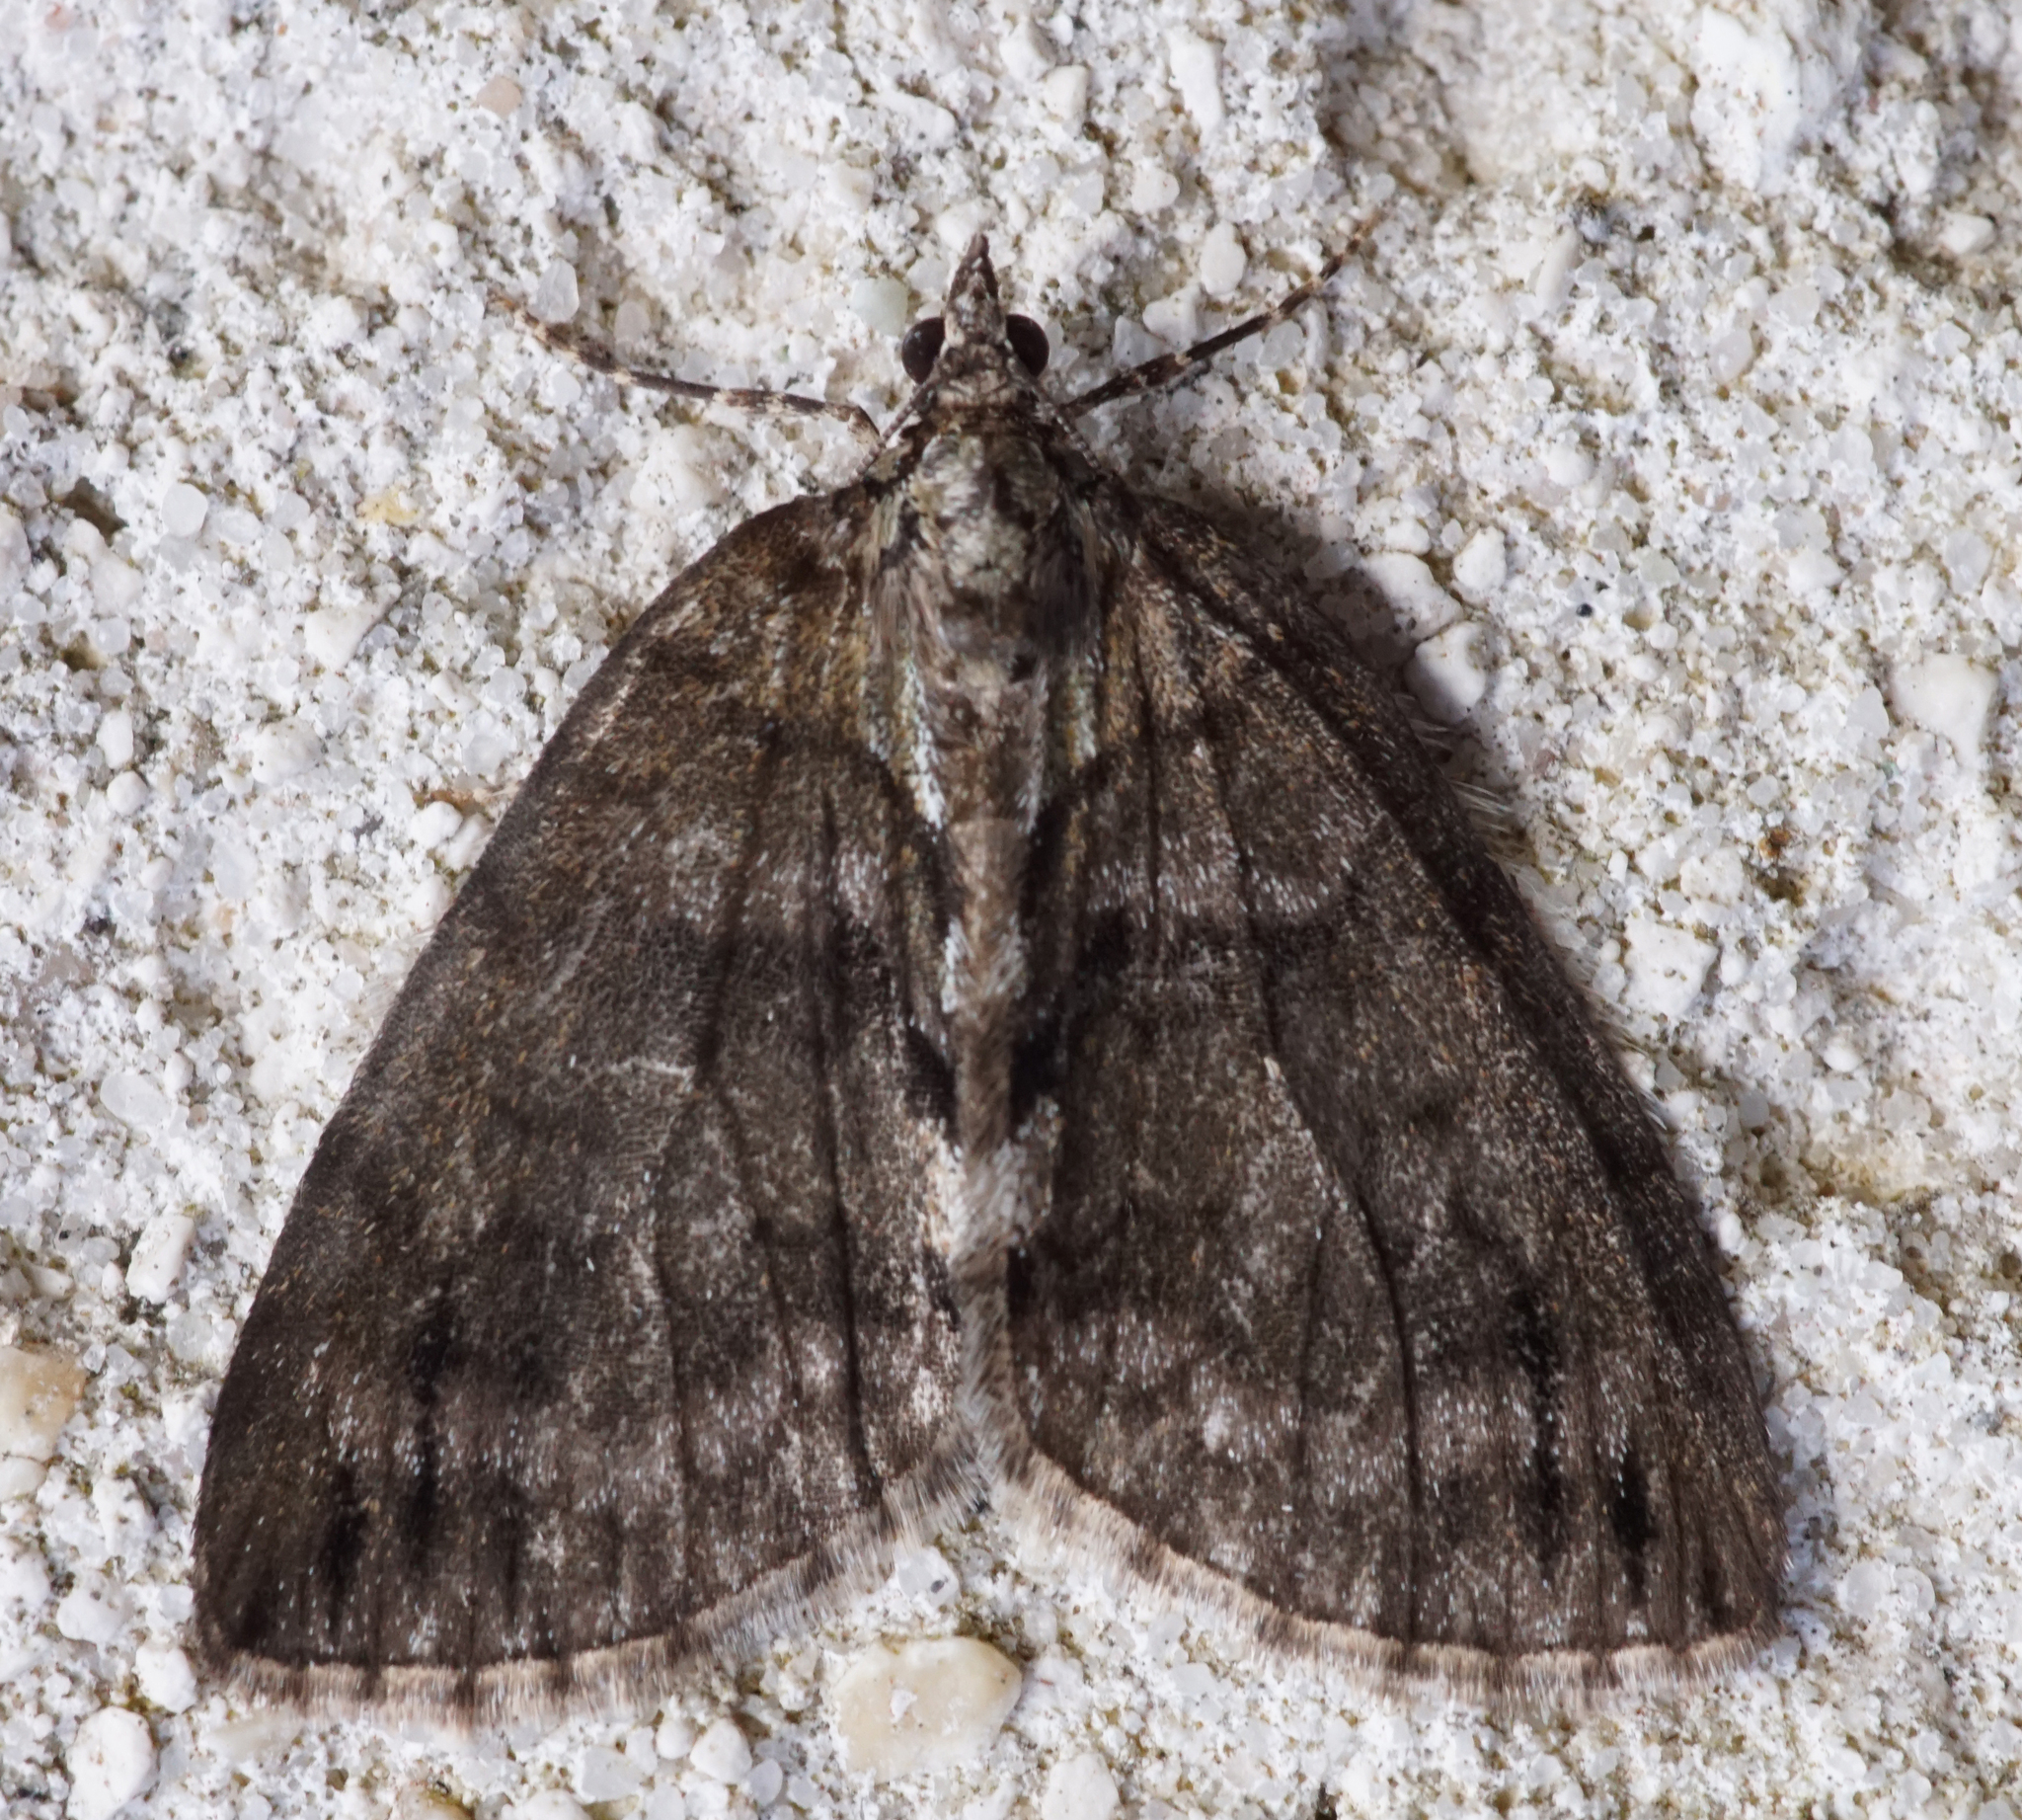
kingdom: Animalia
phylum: Arthropoda
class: Insecta
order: Lepidoptera
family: Geometridae
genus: Hydriomena
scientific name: Hydriomena impluviata
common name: May highflyer
